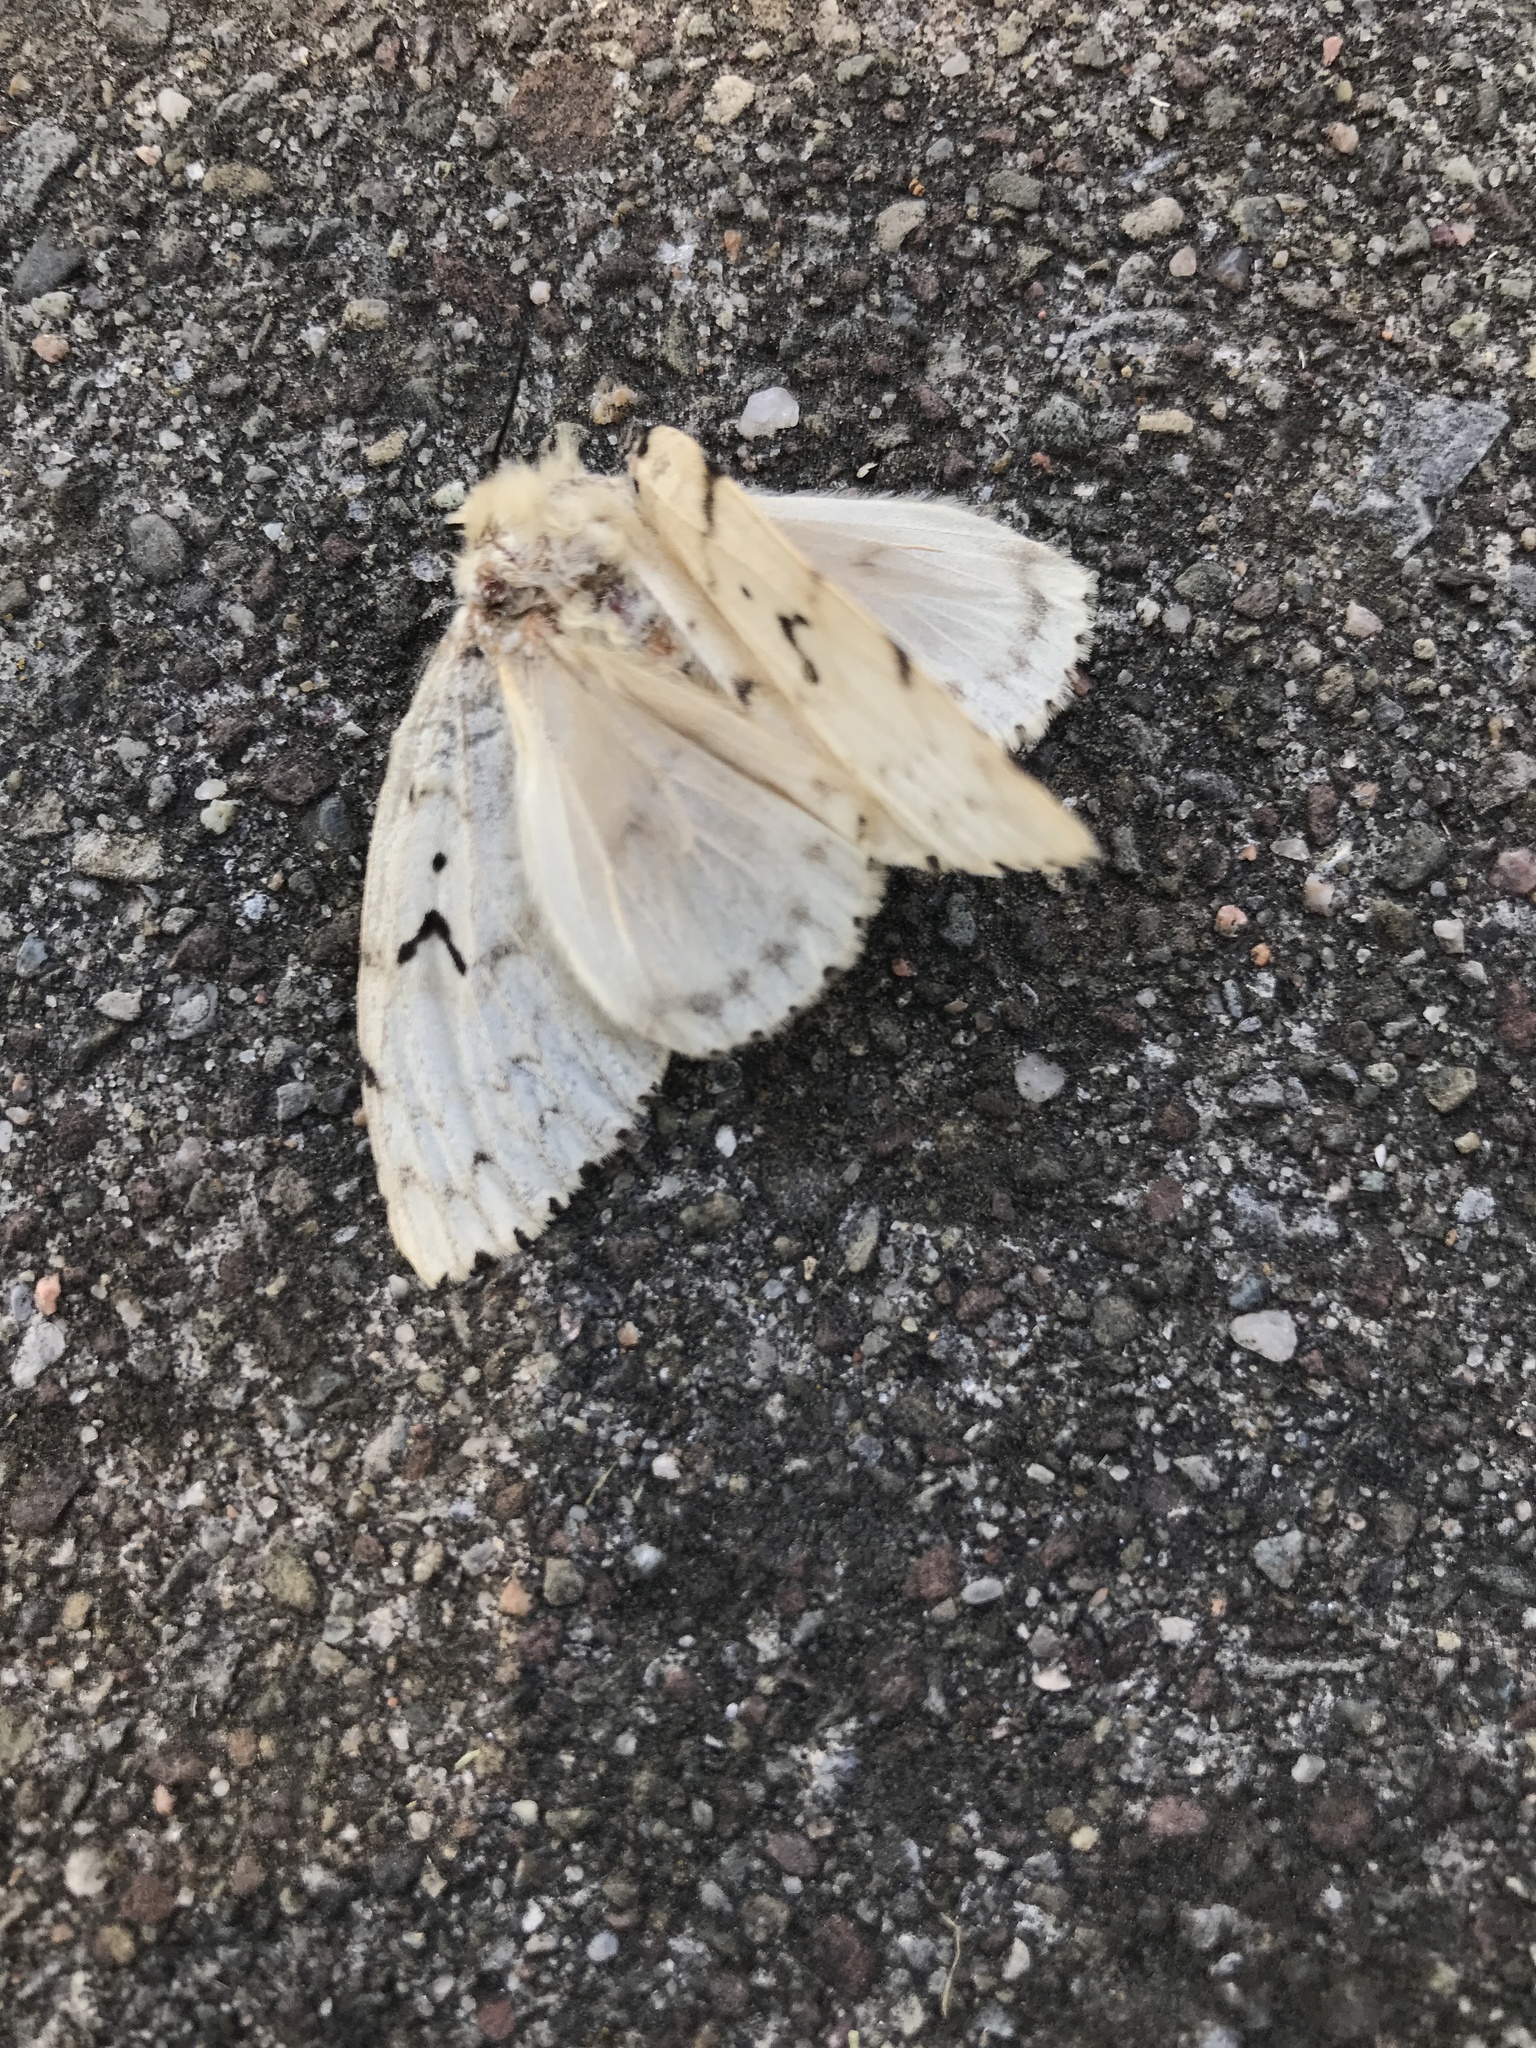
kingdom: Animalia
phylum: Arthropoda
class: Insecta
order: Lepidoptera
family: Erebidae
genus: Lymantria
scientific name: Lymantria dispar
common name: Gypsy moth
